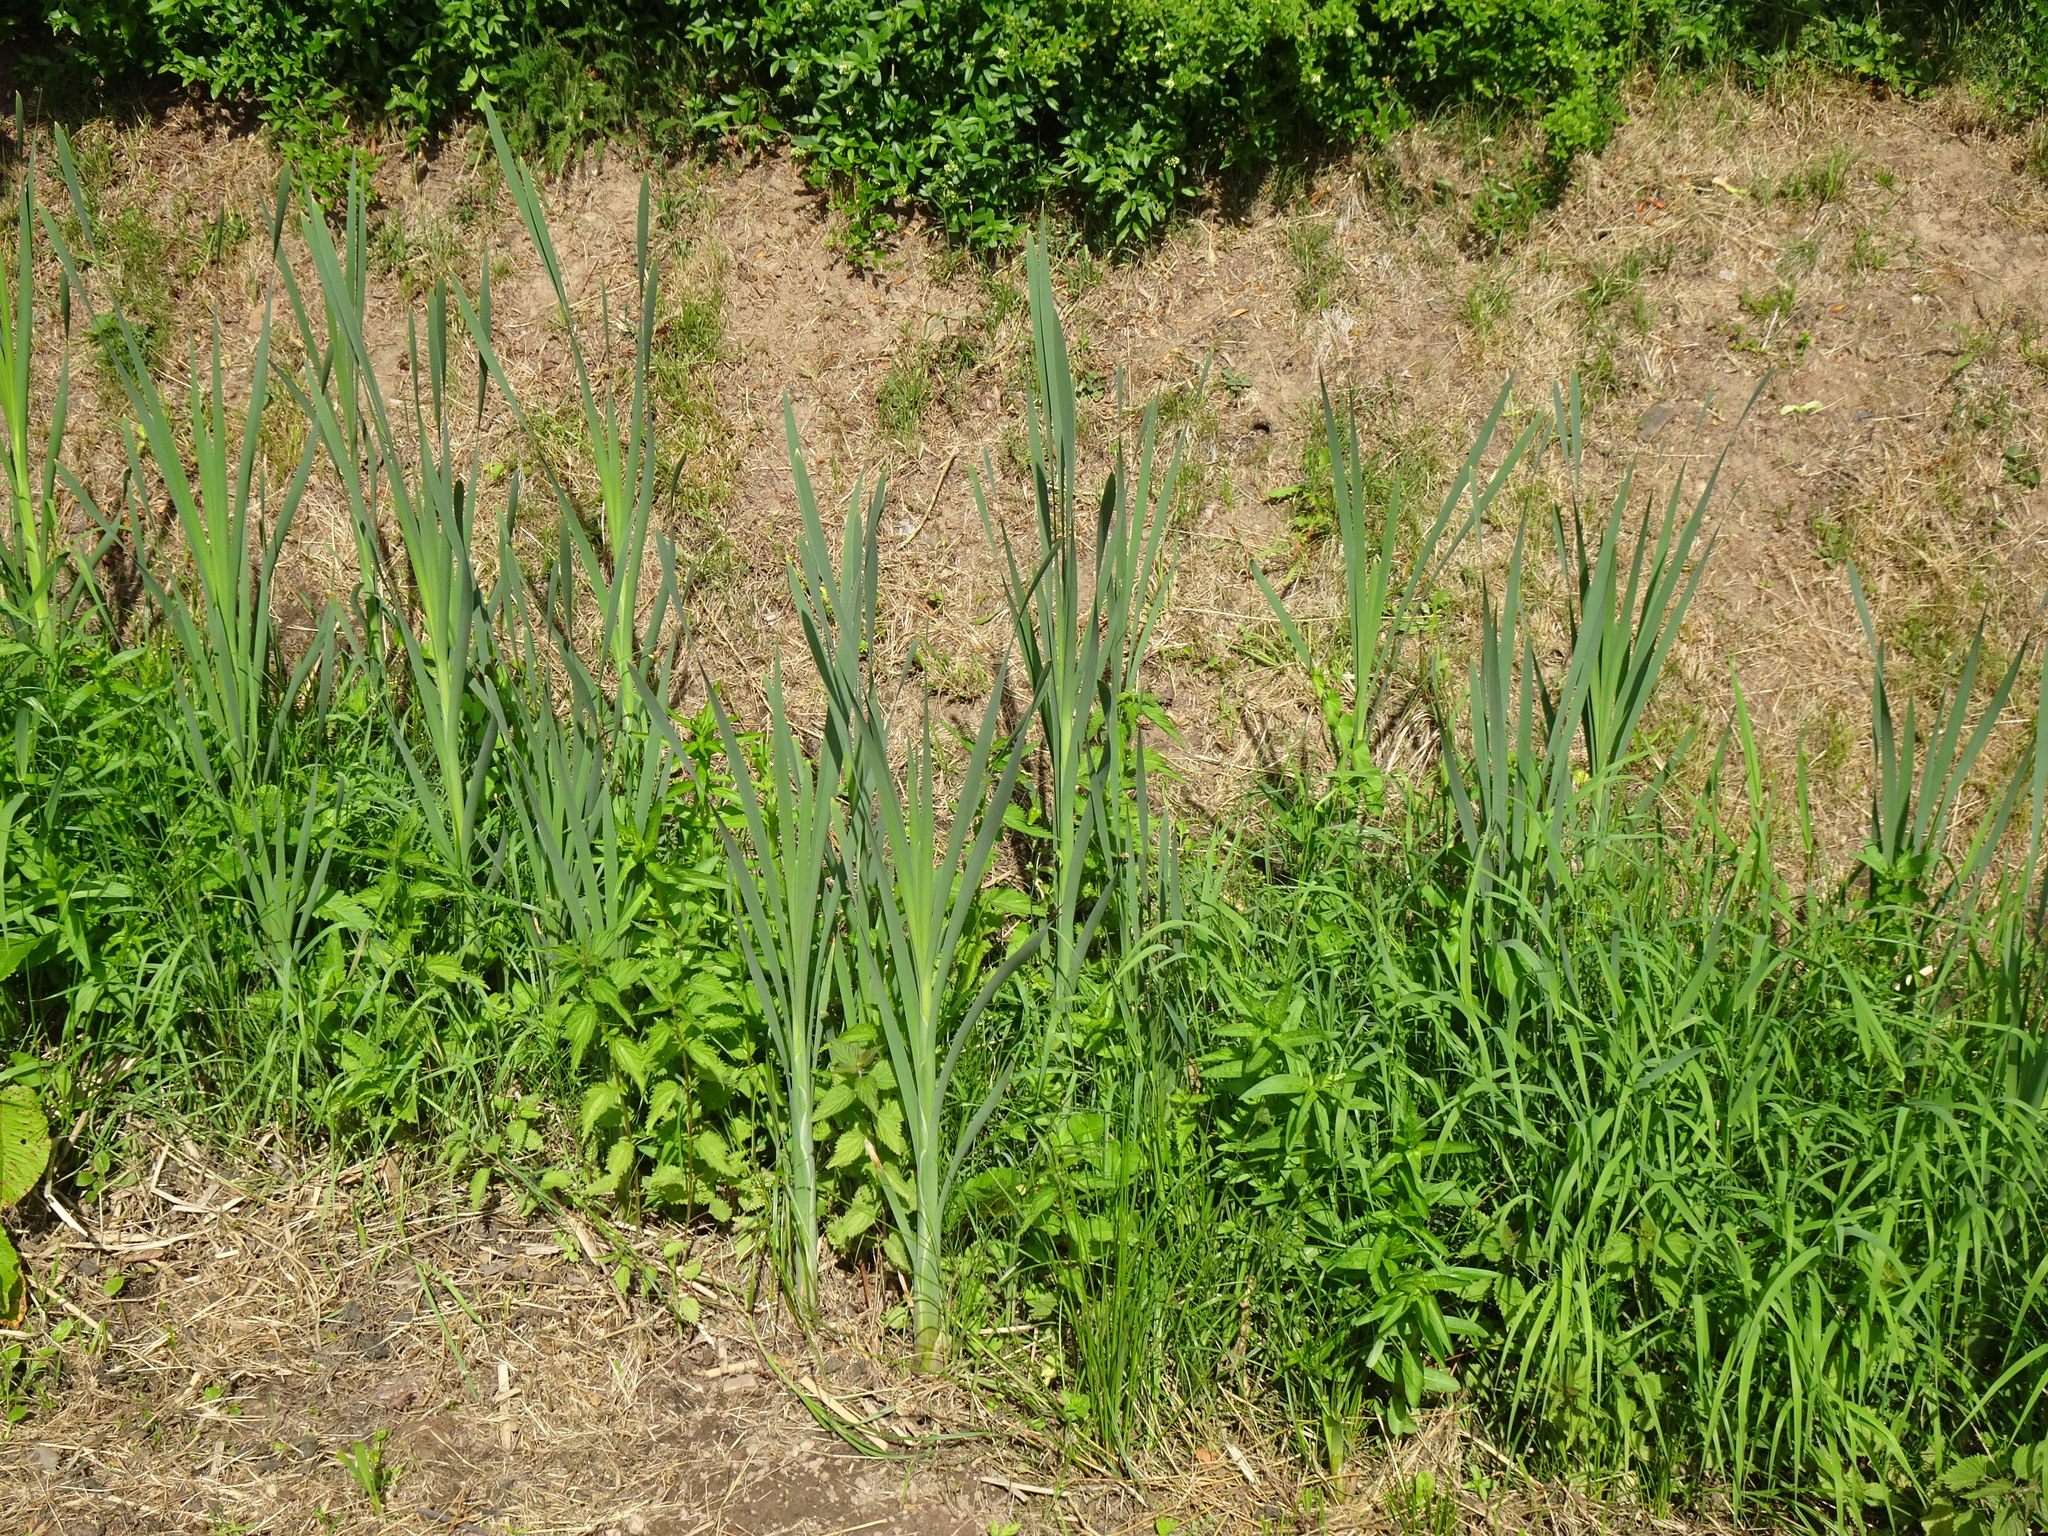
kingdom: Plantae
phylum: Tracheophyta
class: Liliopsida
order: Poales
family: Typhaceae
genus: Typha
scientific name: Typha latifolia
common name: Broadleaf cattail
